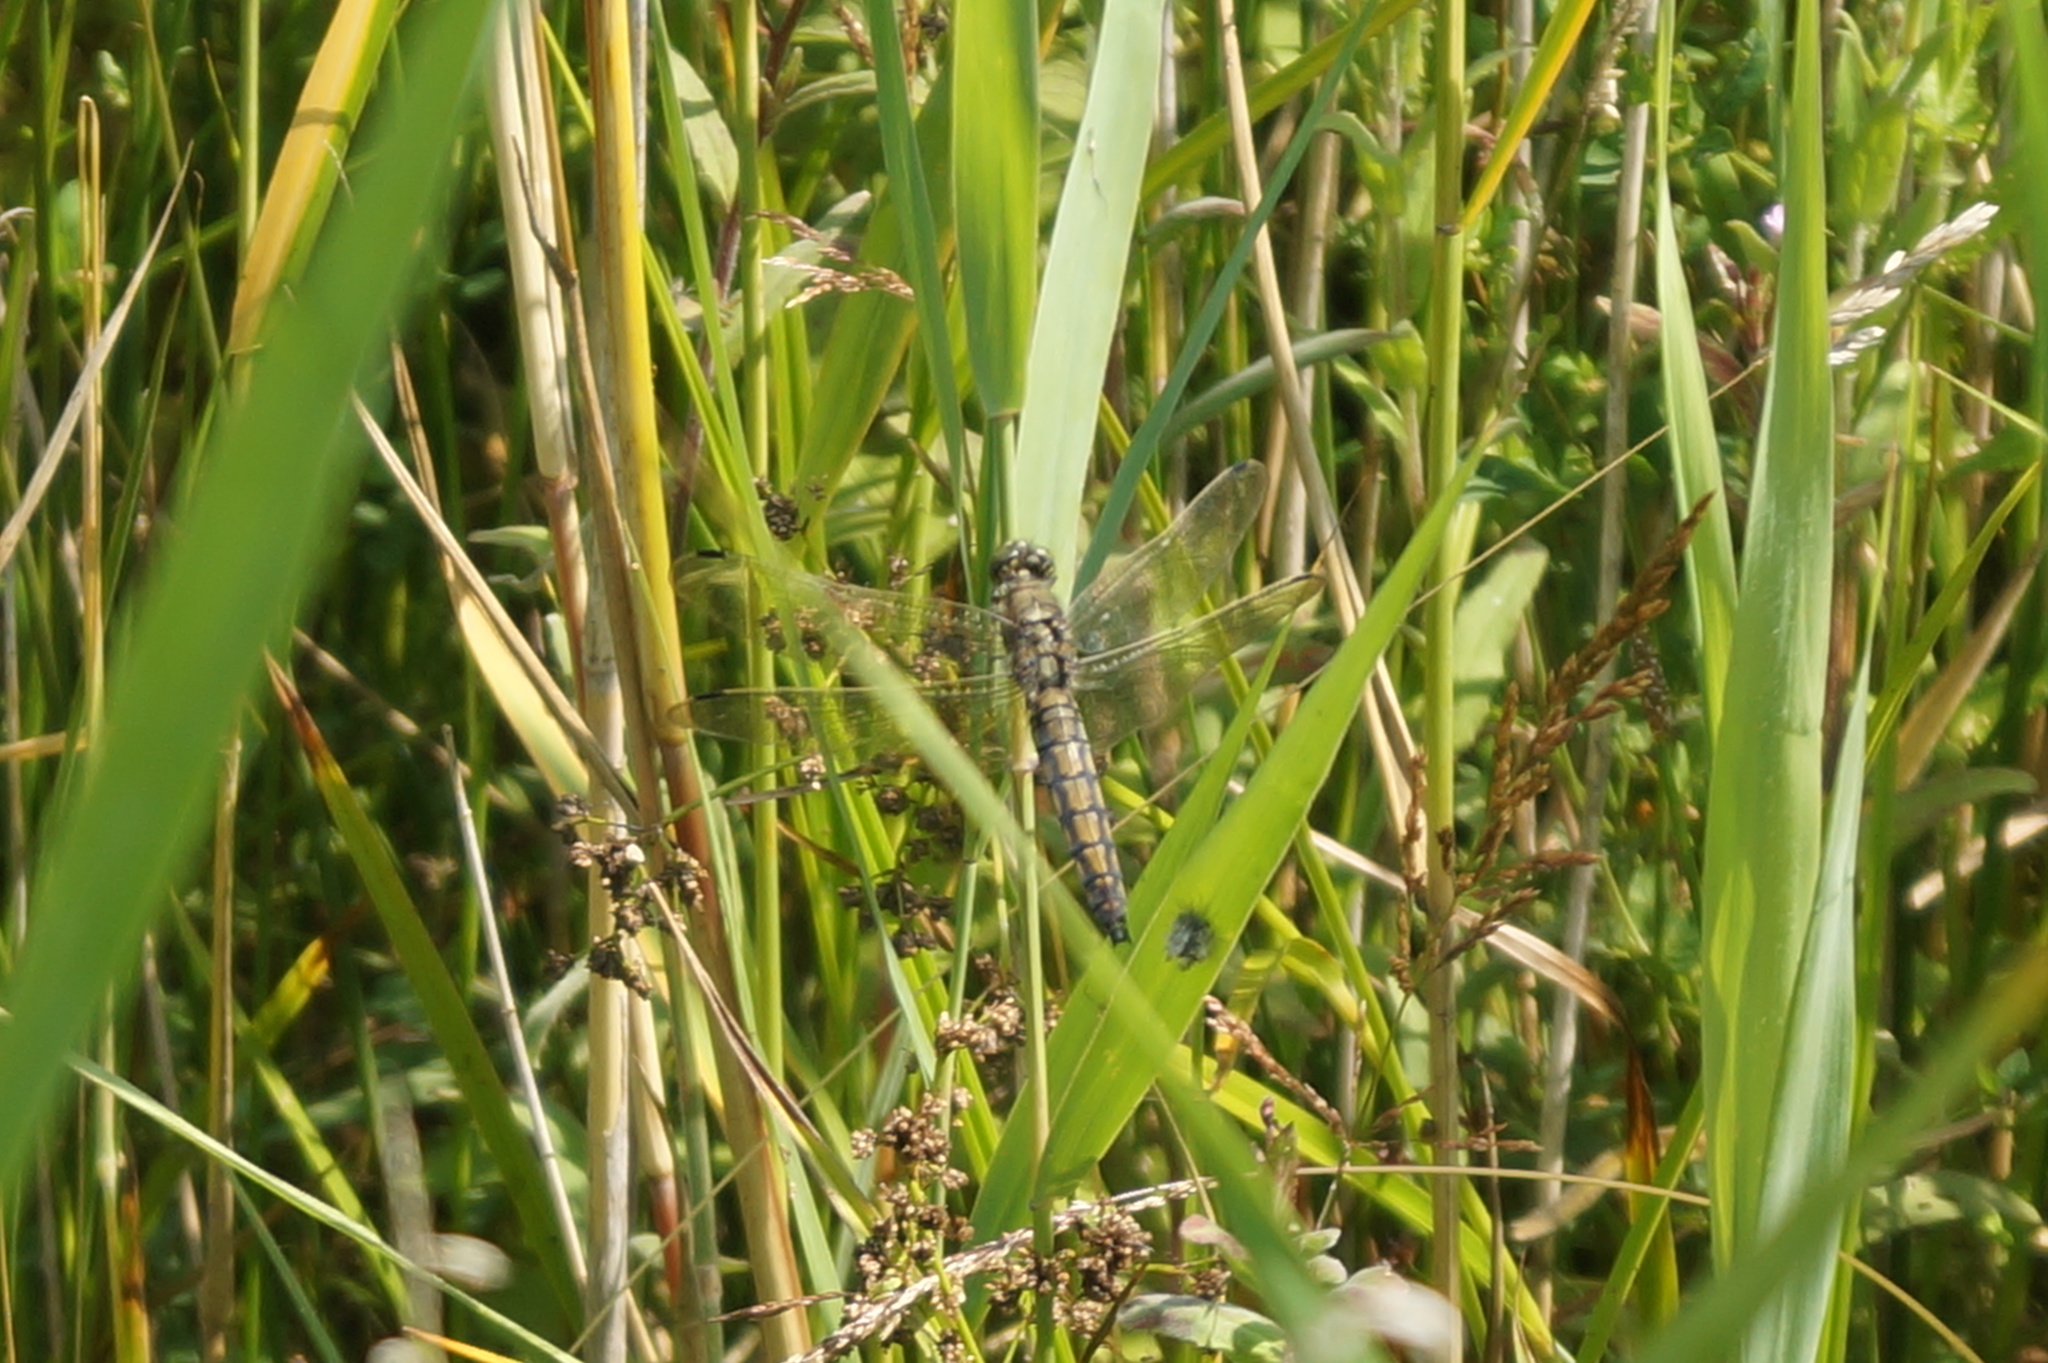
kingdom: Animalia
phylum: Arthropoda
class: Insecta
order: Odonata
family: Libellulidae
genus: Orthetrum
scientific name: Orthetrum cancellatum
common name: Black-tailed skimmer
